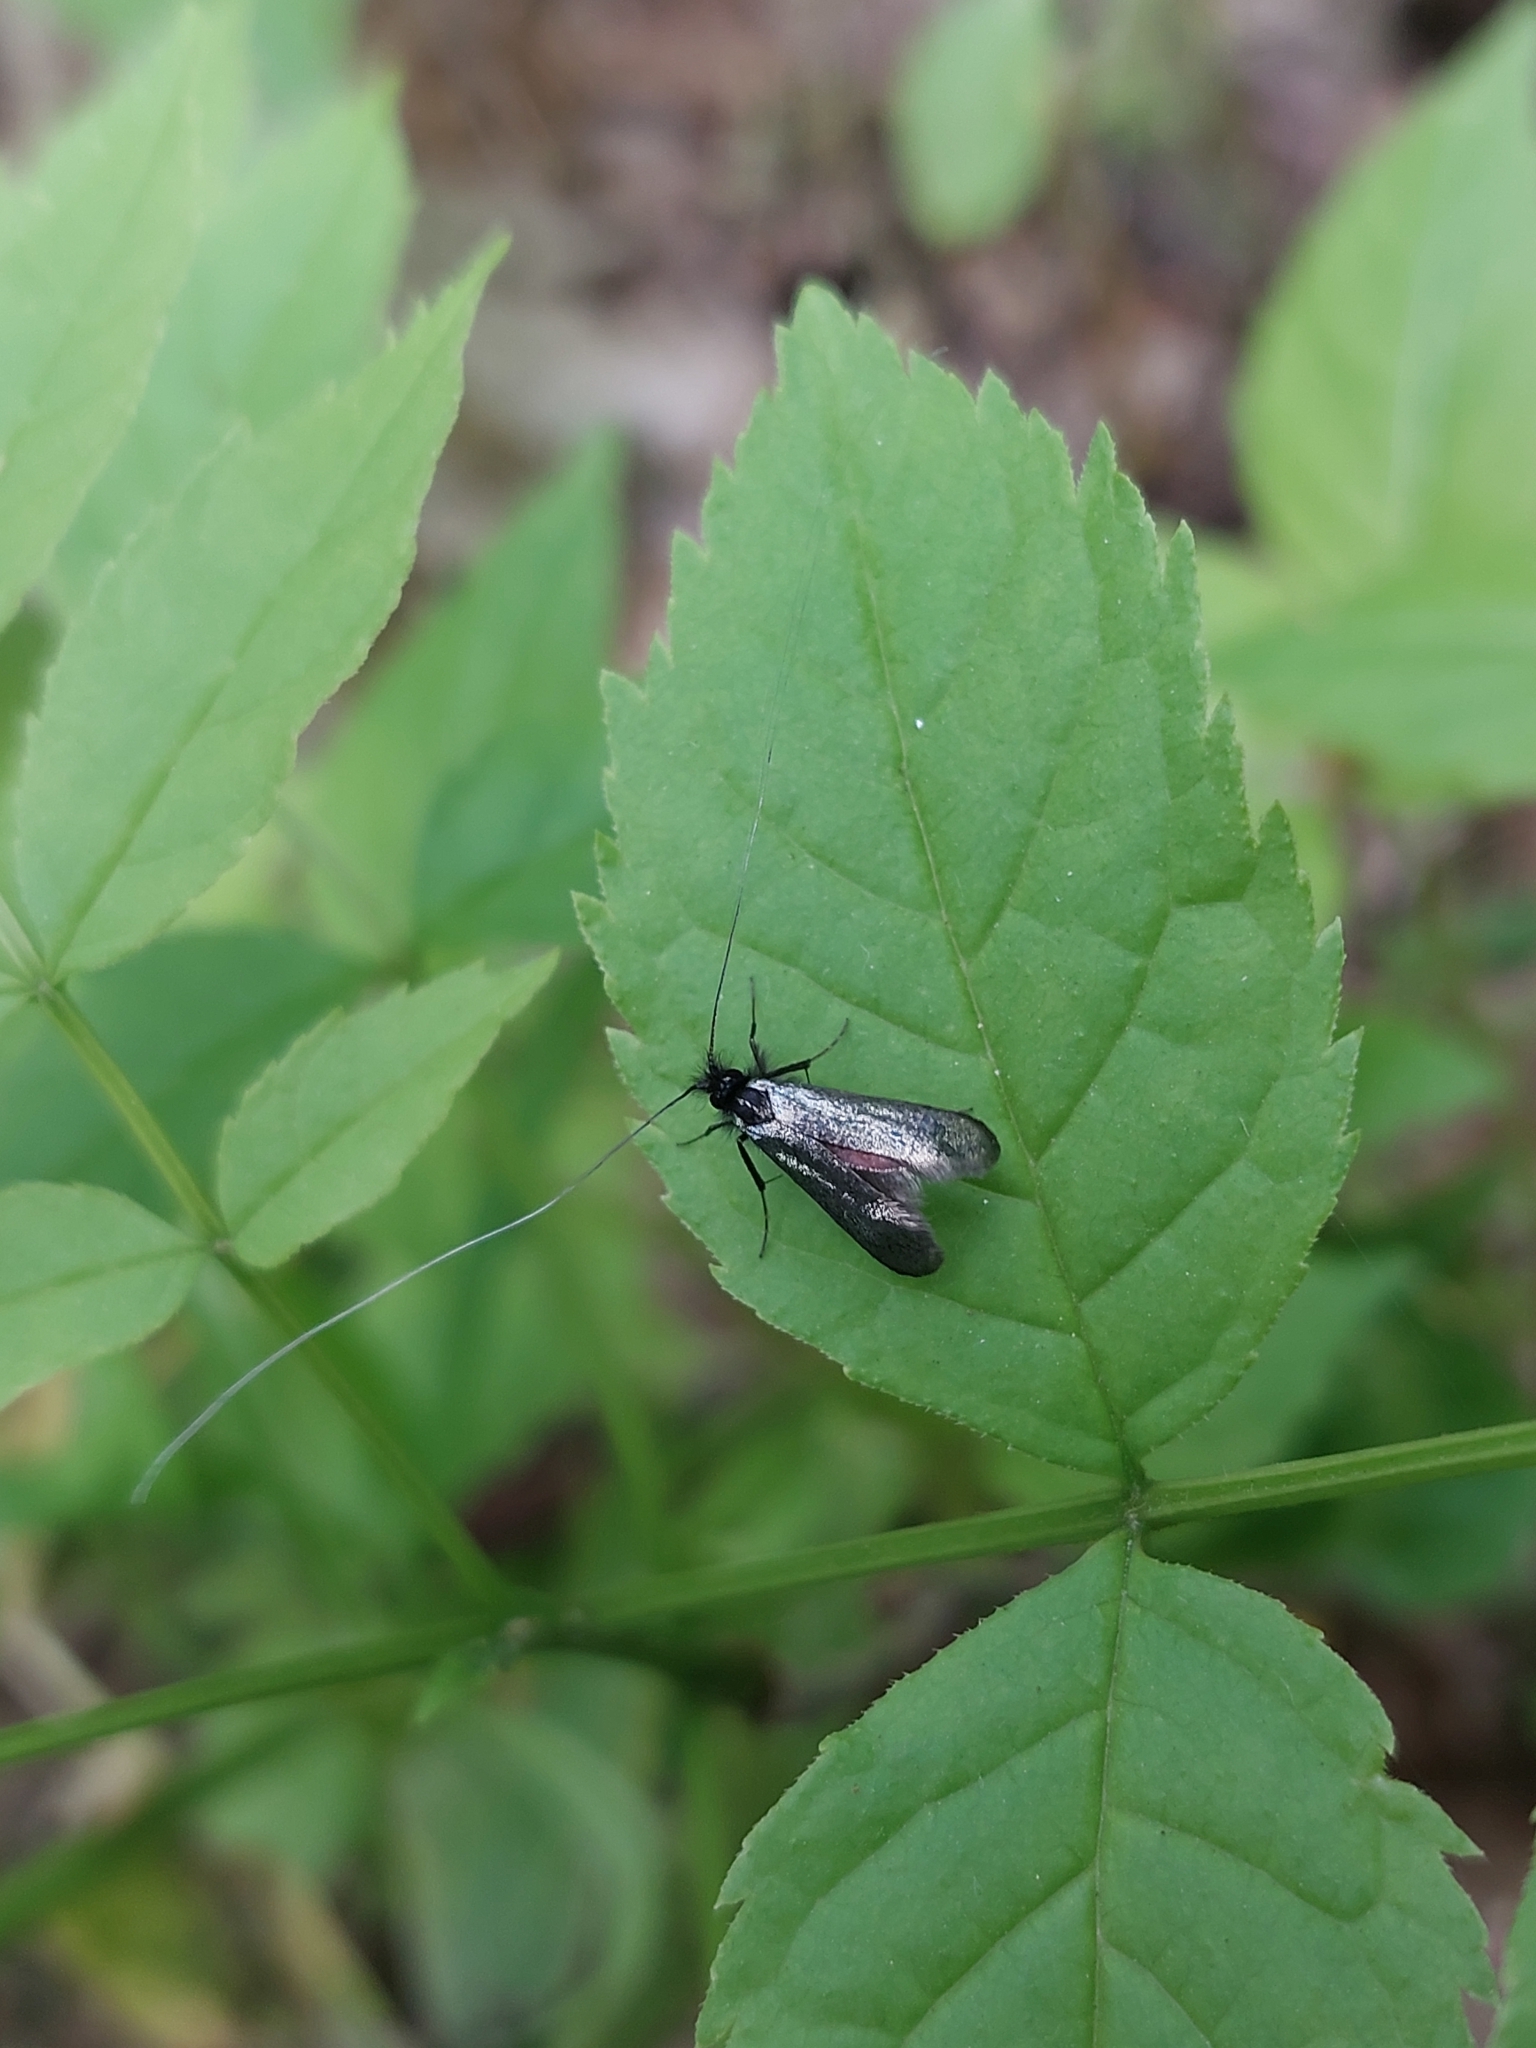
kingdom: Animalia
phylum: Arthropoda
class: Insecta
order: Lepidoptera
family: Adelidae
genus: Adela
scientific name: Adela viridella
